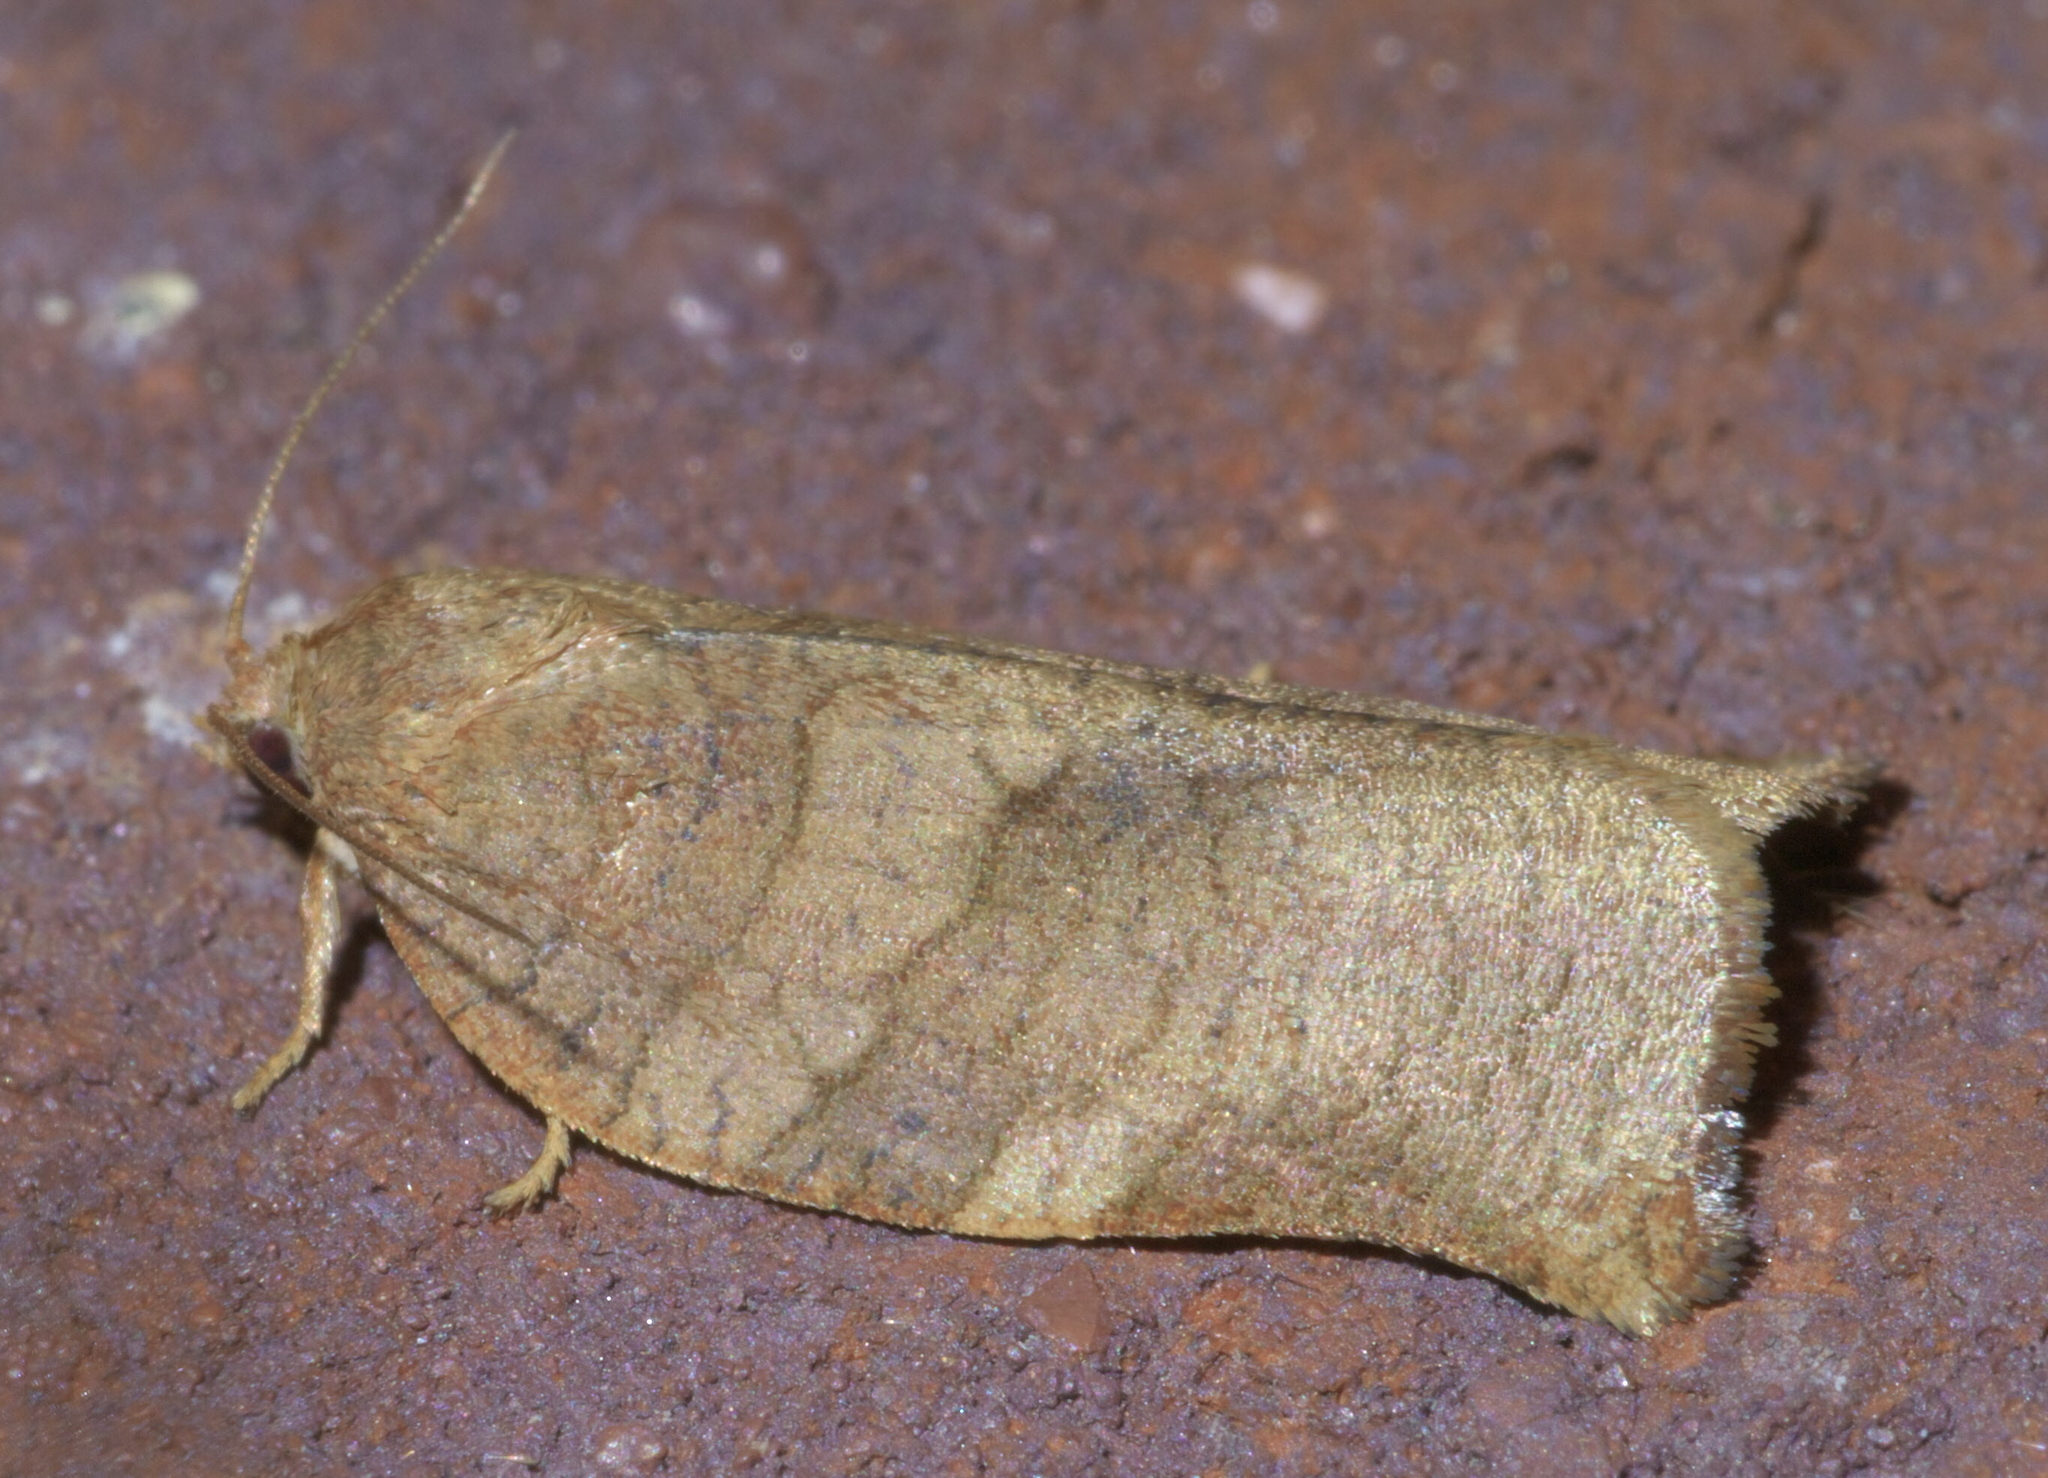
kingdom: Animalia
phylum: Arthropoda
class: Insecta
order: Lepidoptera
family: Tortricidae
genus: Choristoneura
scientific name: Choristoneura rosaceana
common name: Oblique-banded leafroller moth
